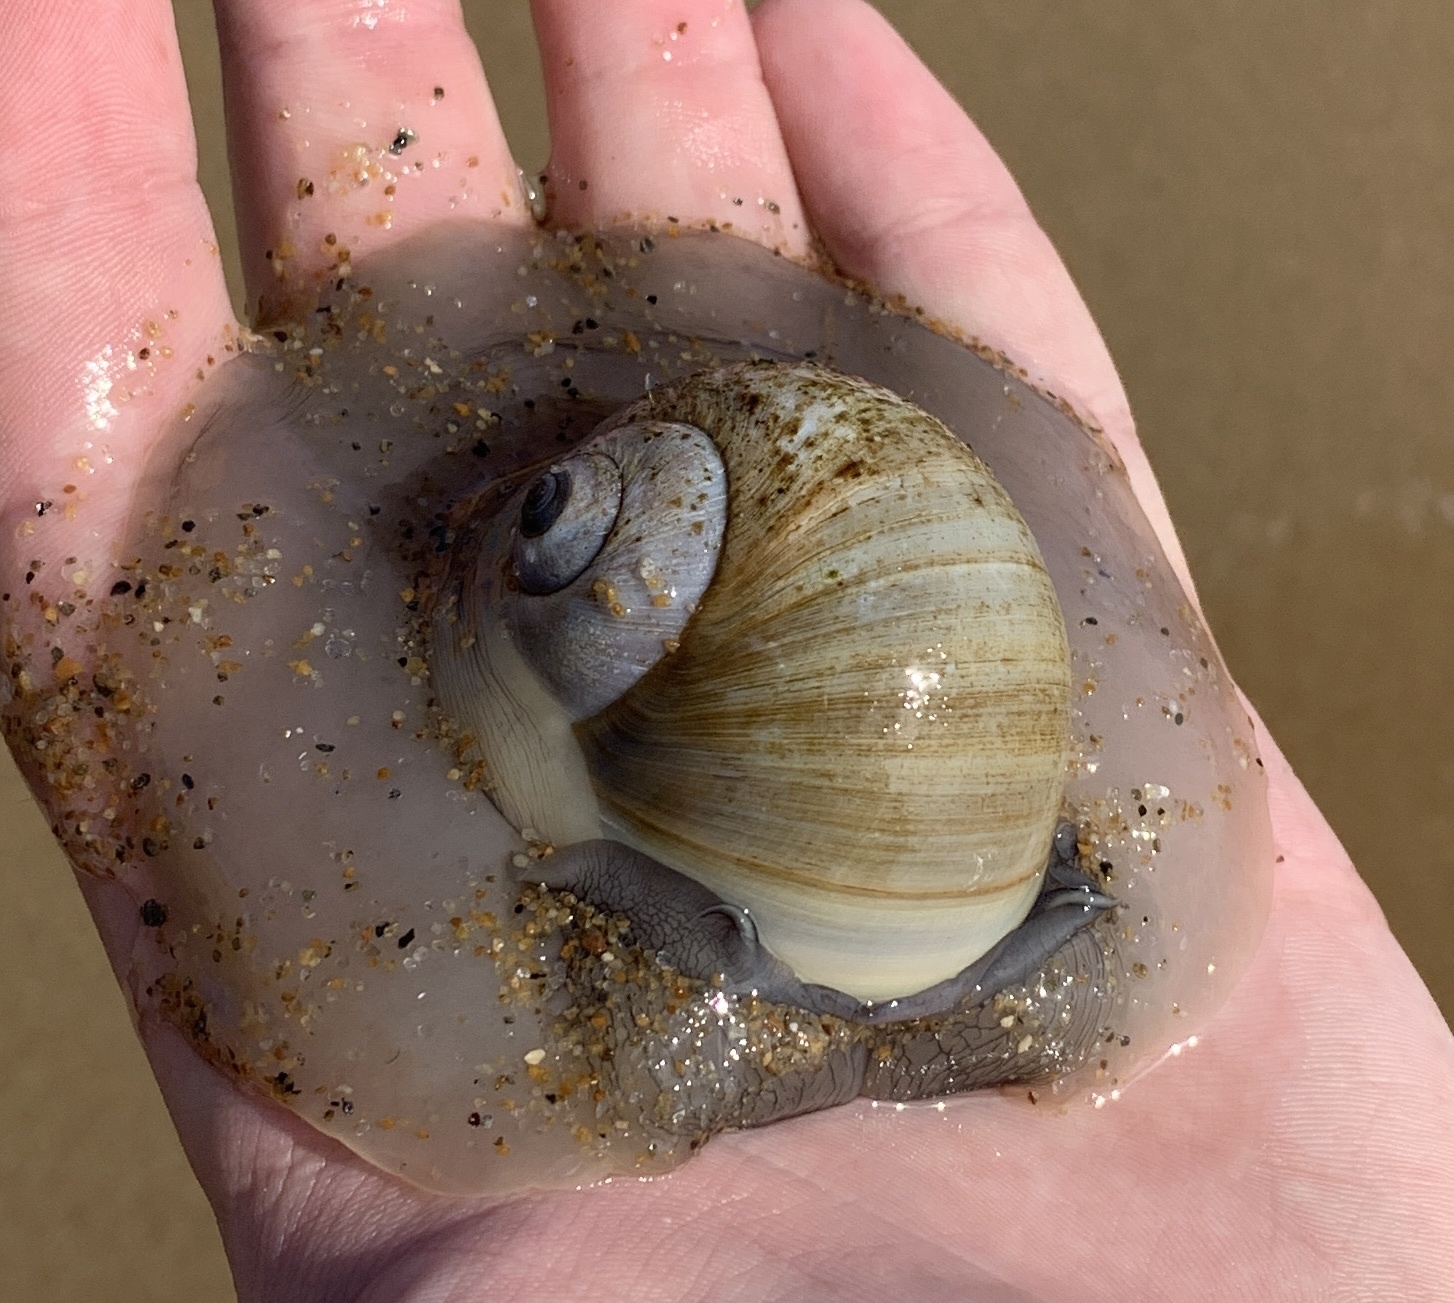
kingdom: Animalia
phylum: Mollusca
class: Gastropoda
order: Littorinimorpha
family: Naticidae
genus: Euspira
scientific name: Euspira heros
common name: Common northern moonsnail
